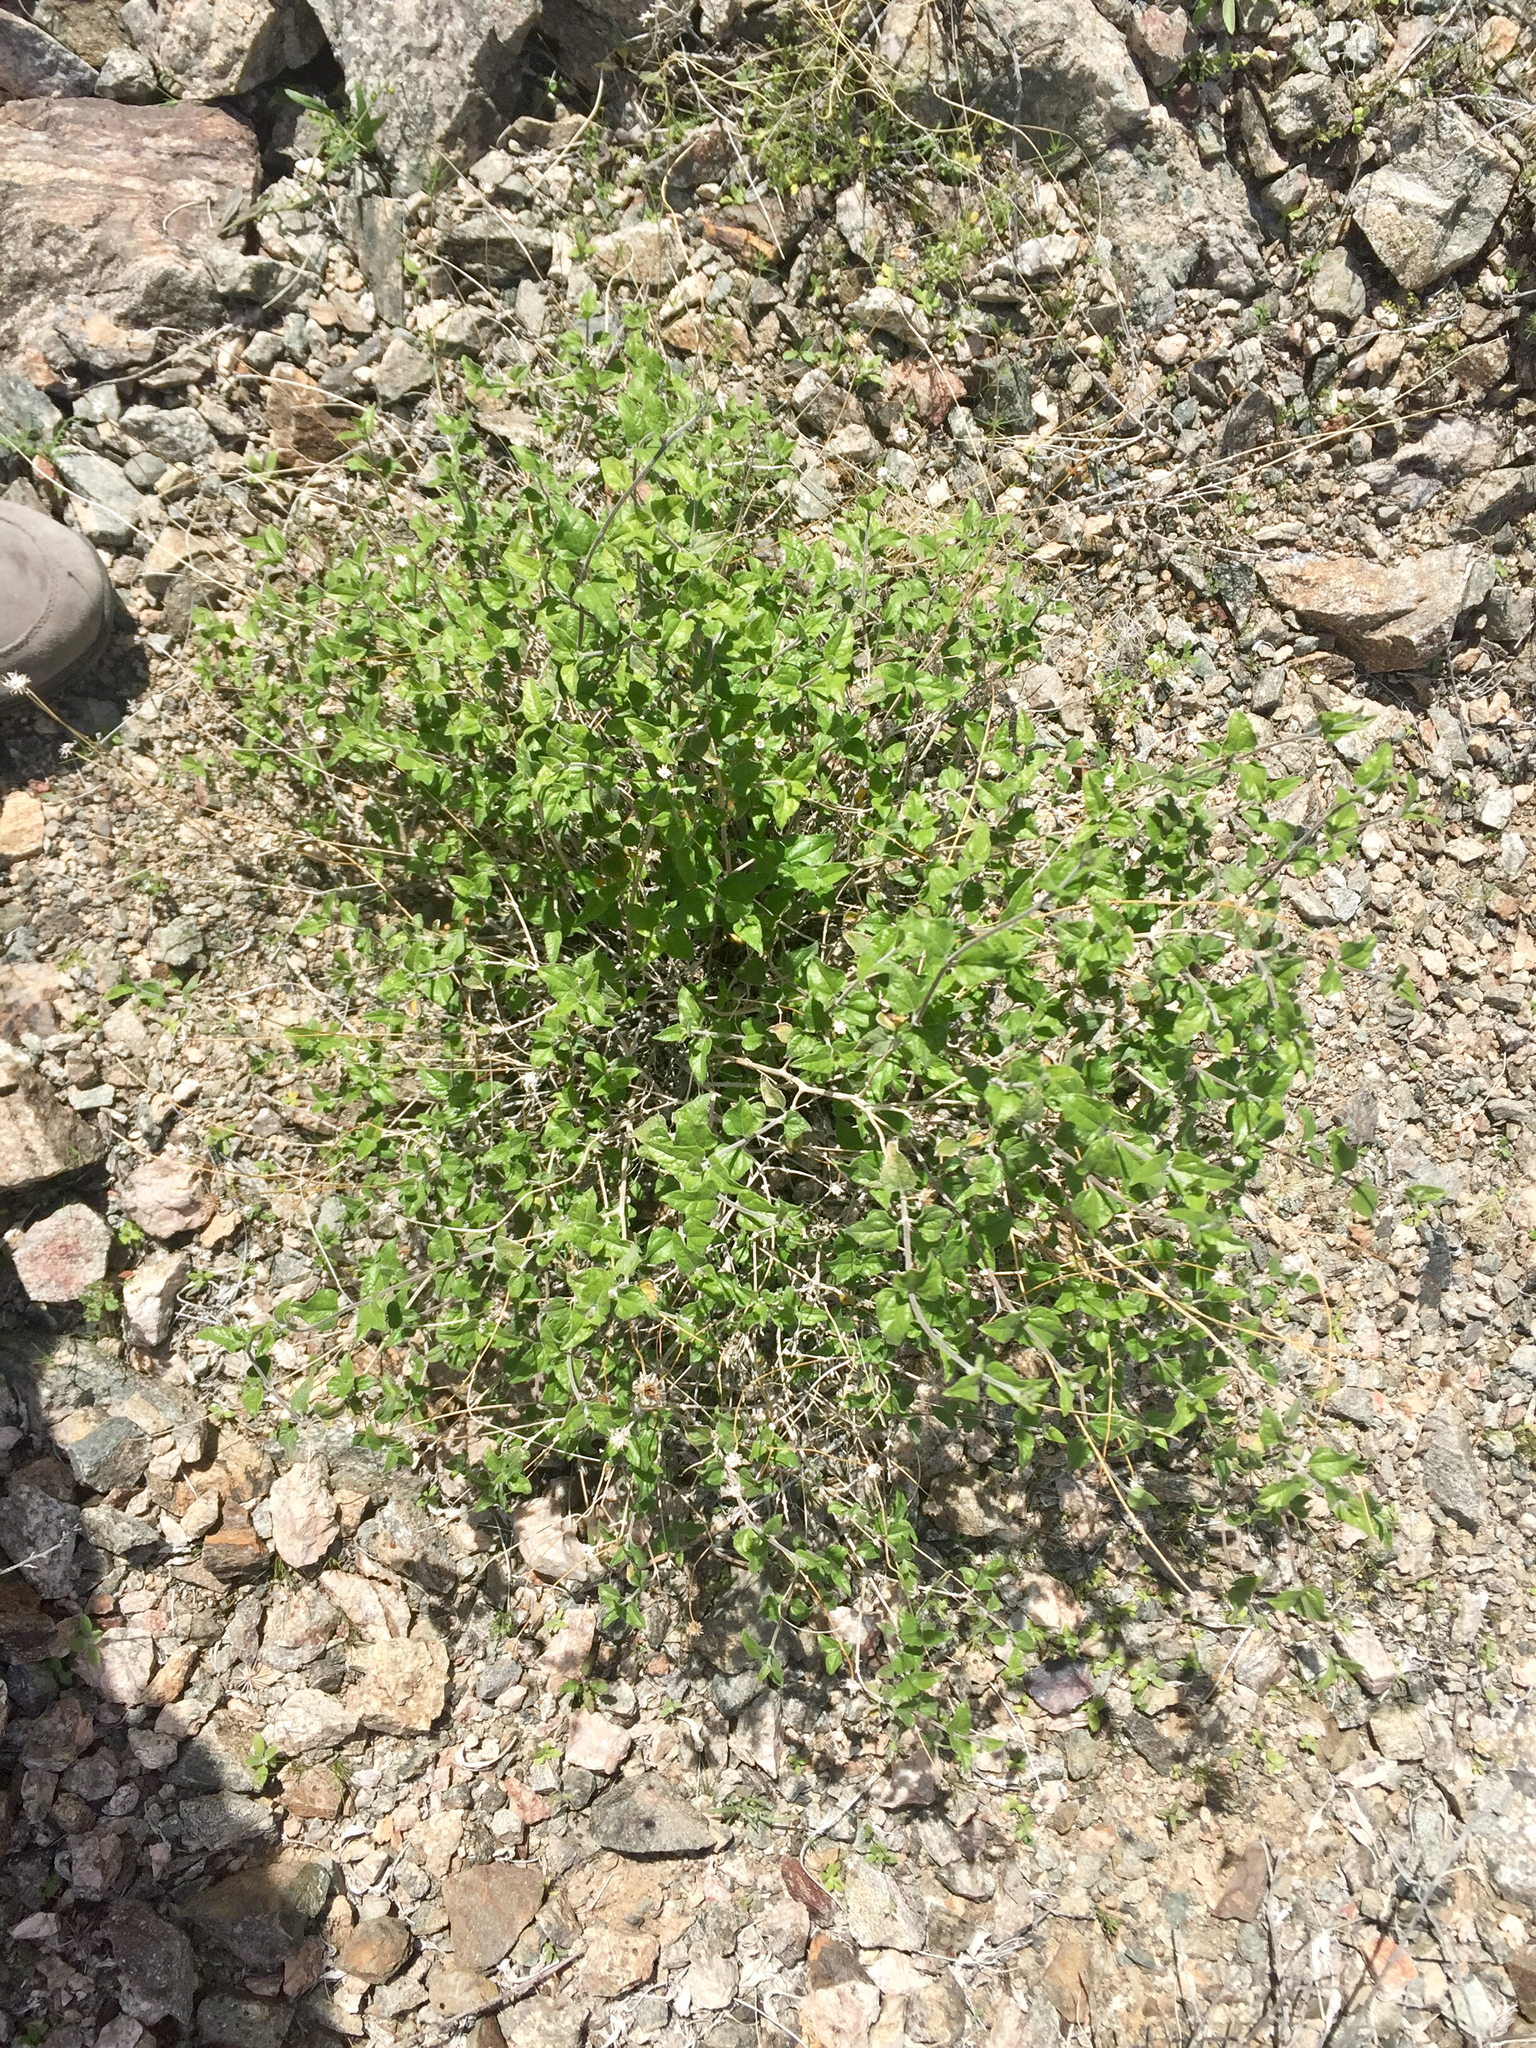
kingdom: Plantae
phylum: Tracheophyta
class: Magnoliopsida
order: Asterales
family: Asteraceae
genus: Bahiopsis
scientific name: Bahiopsis parishii
